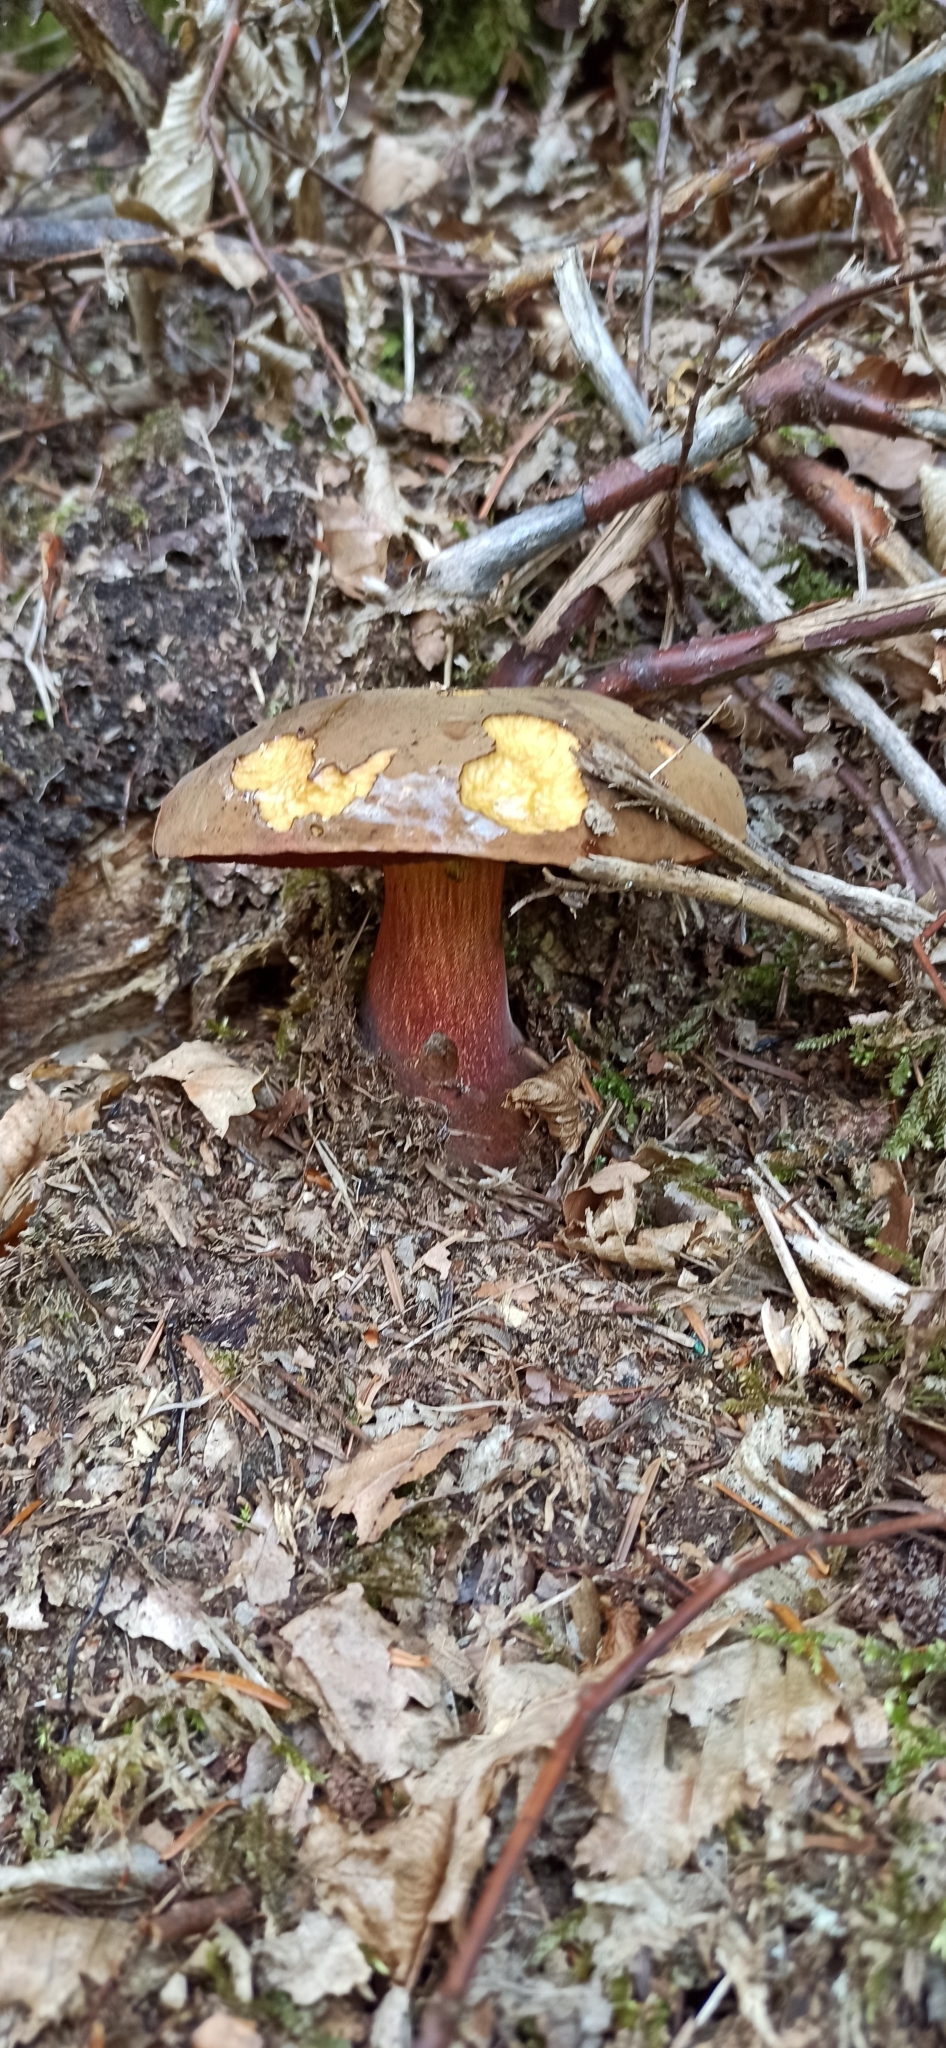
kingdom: Fungi
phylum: Basidiomycota
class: Agaricomycetes
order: Boletales
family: Boletaceae
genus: Neoboletus
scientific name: Neoboletus erythropus
